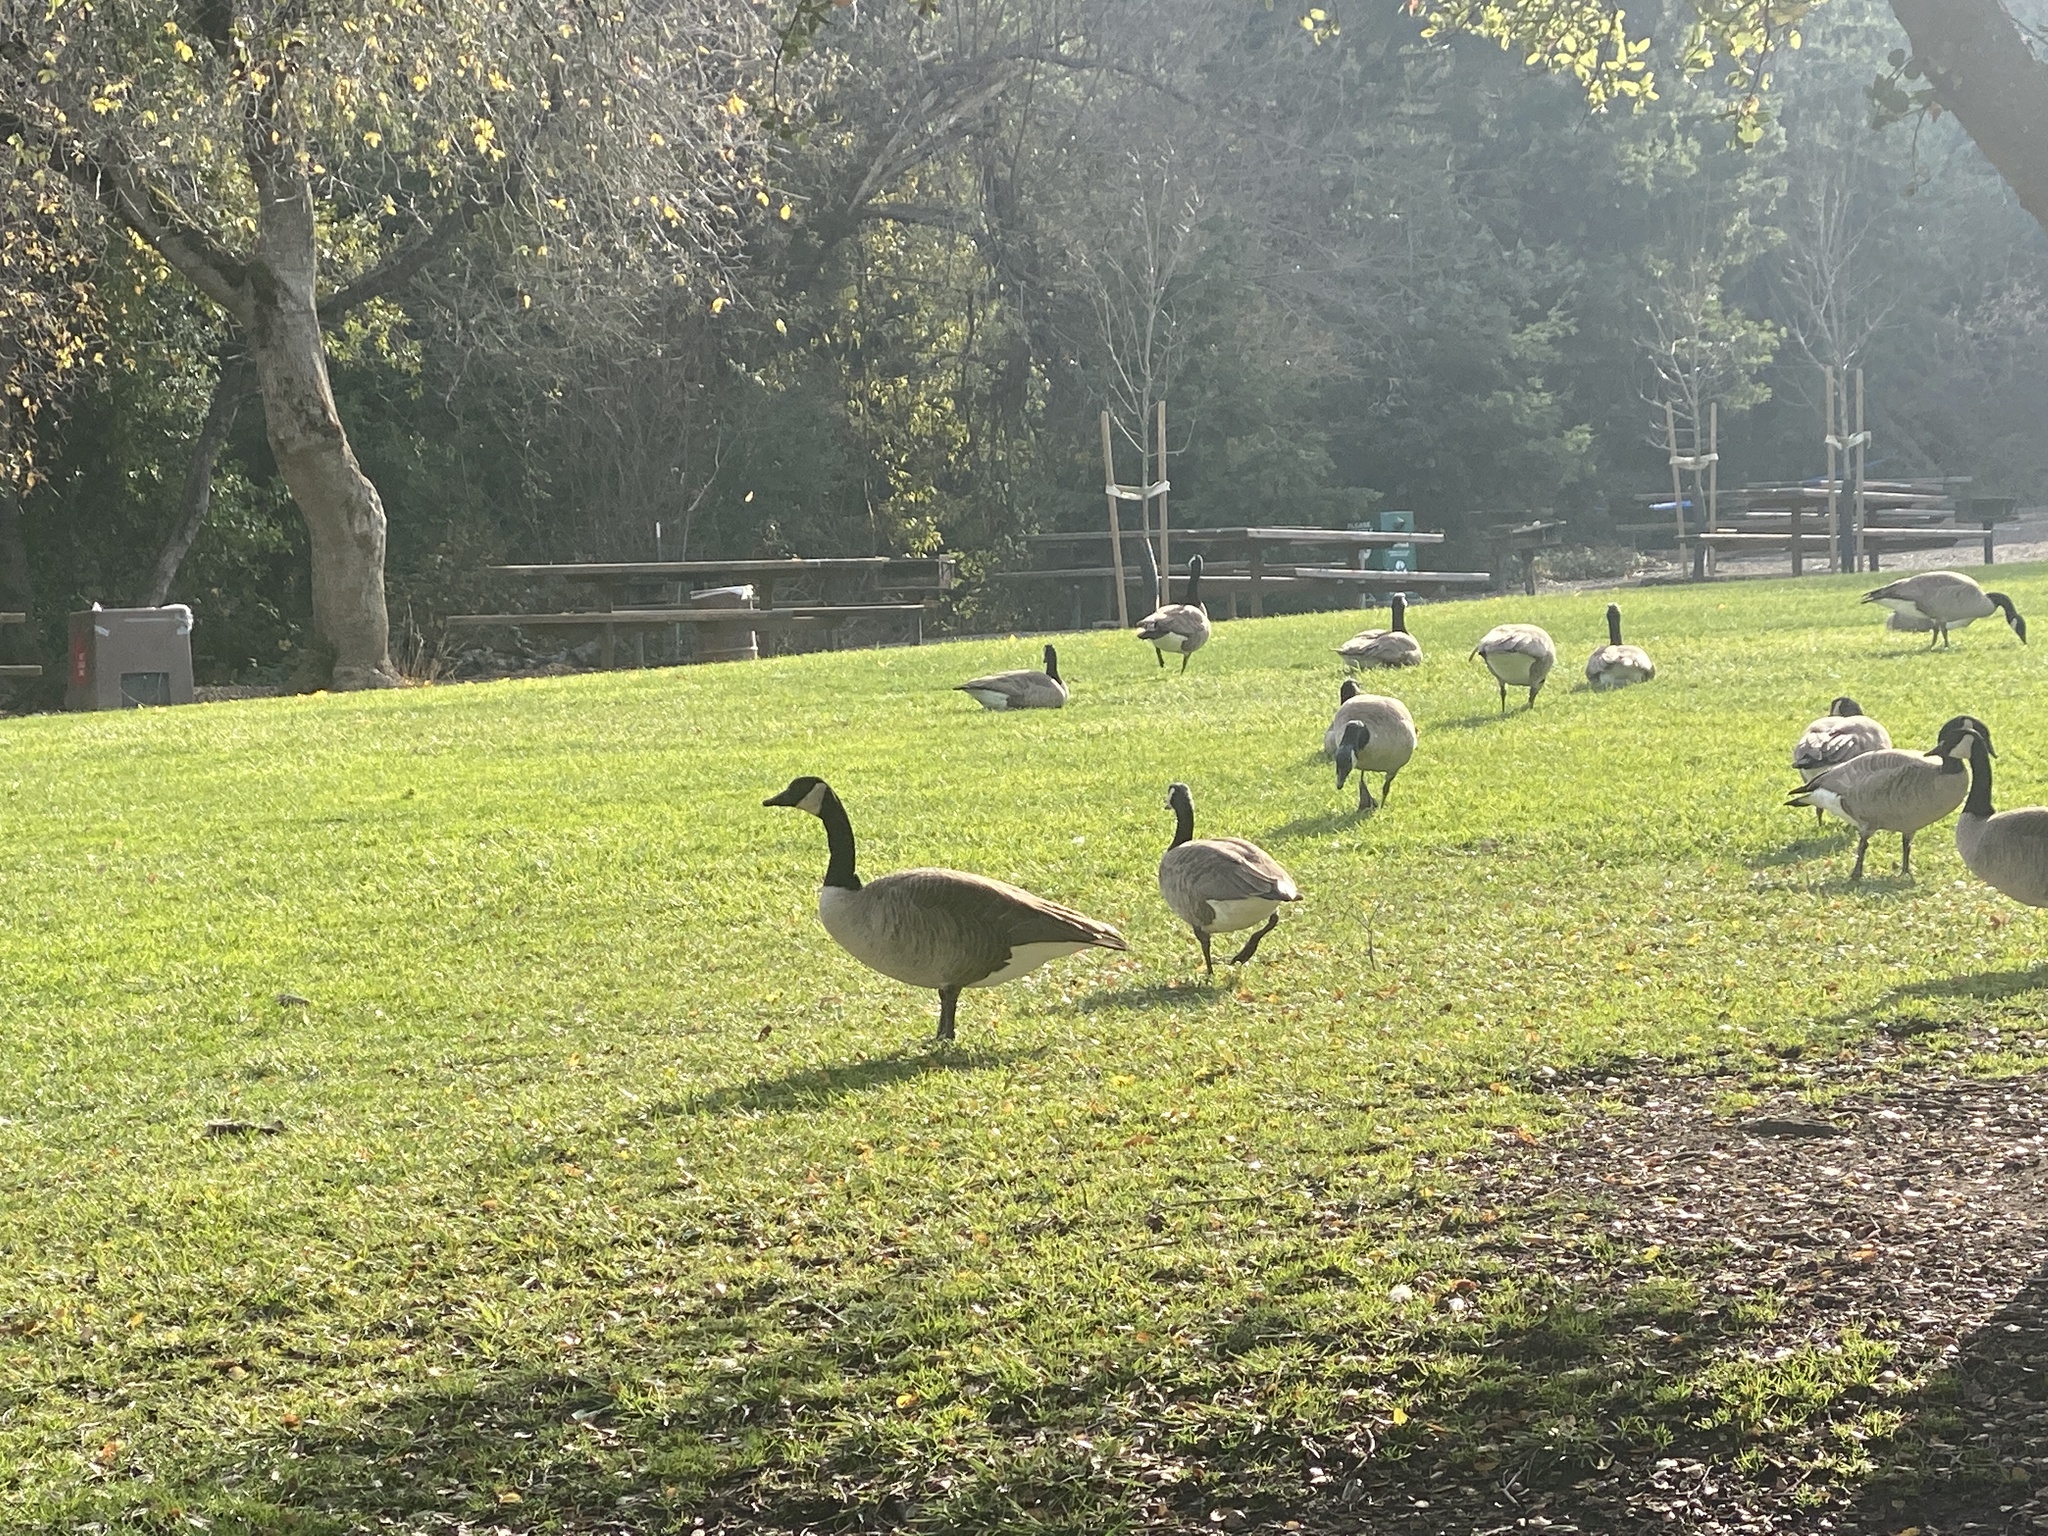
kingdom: Animalia
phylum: Chordata
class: Aves
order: Anseriformes
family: Anatidae
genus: Branta
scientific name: Branta canadensis
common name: Canada goose
